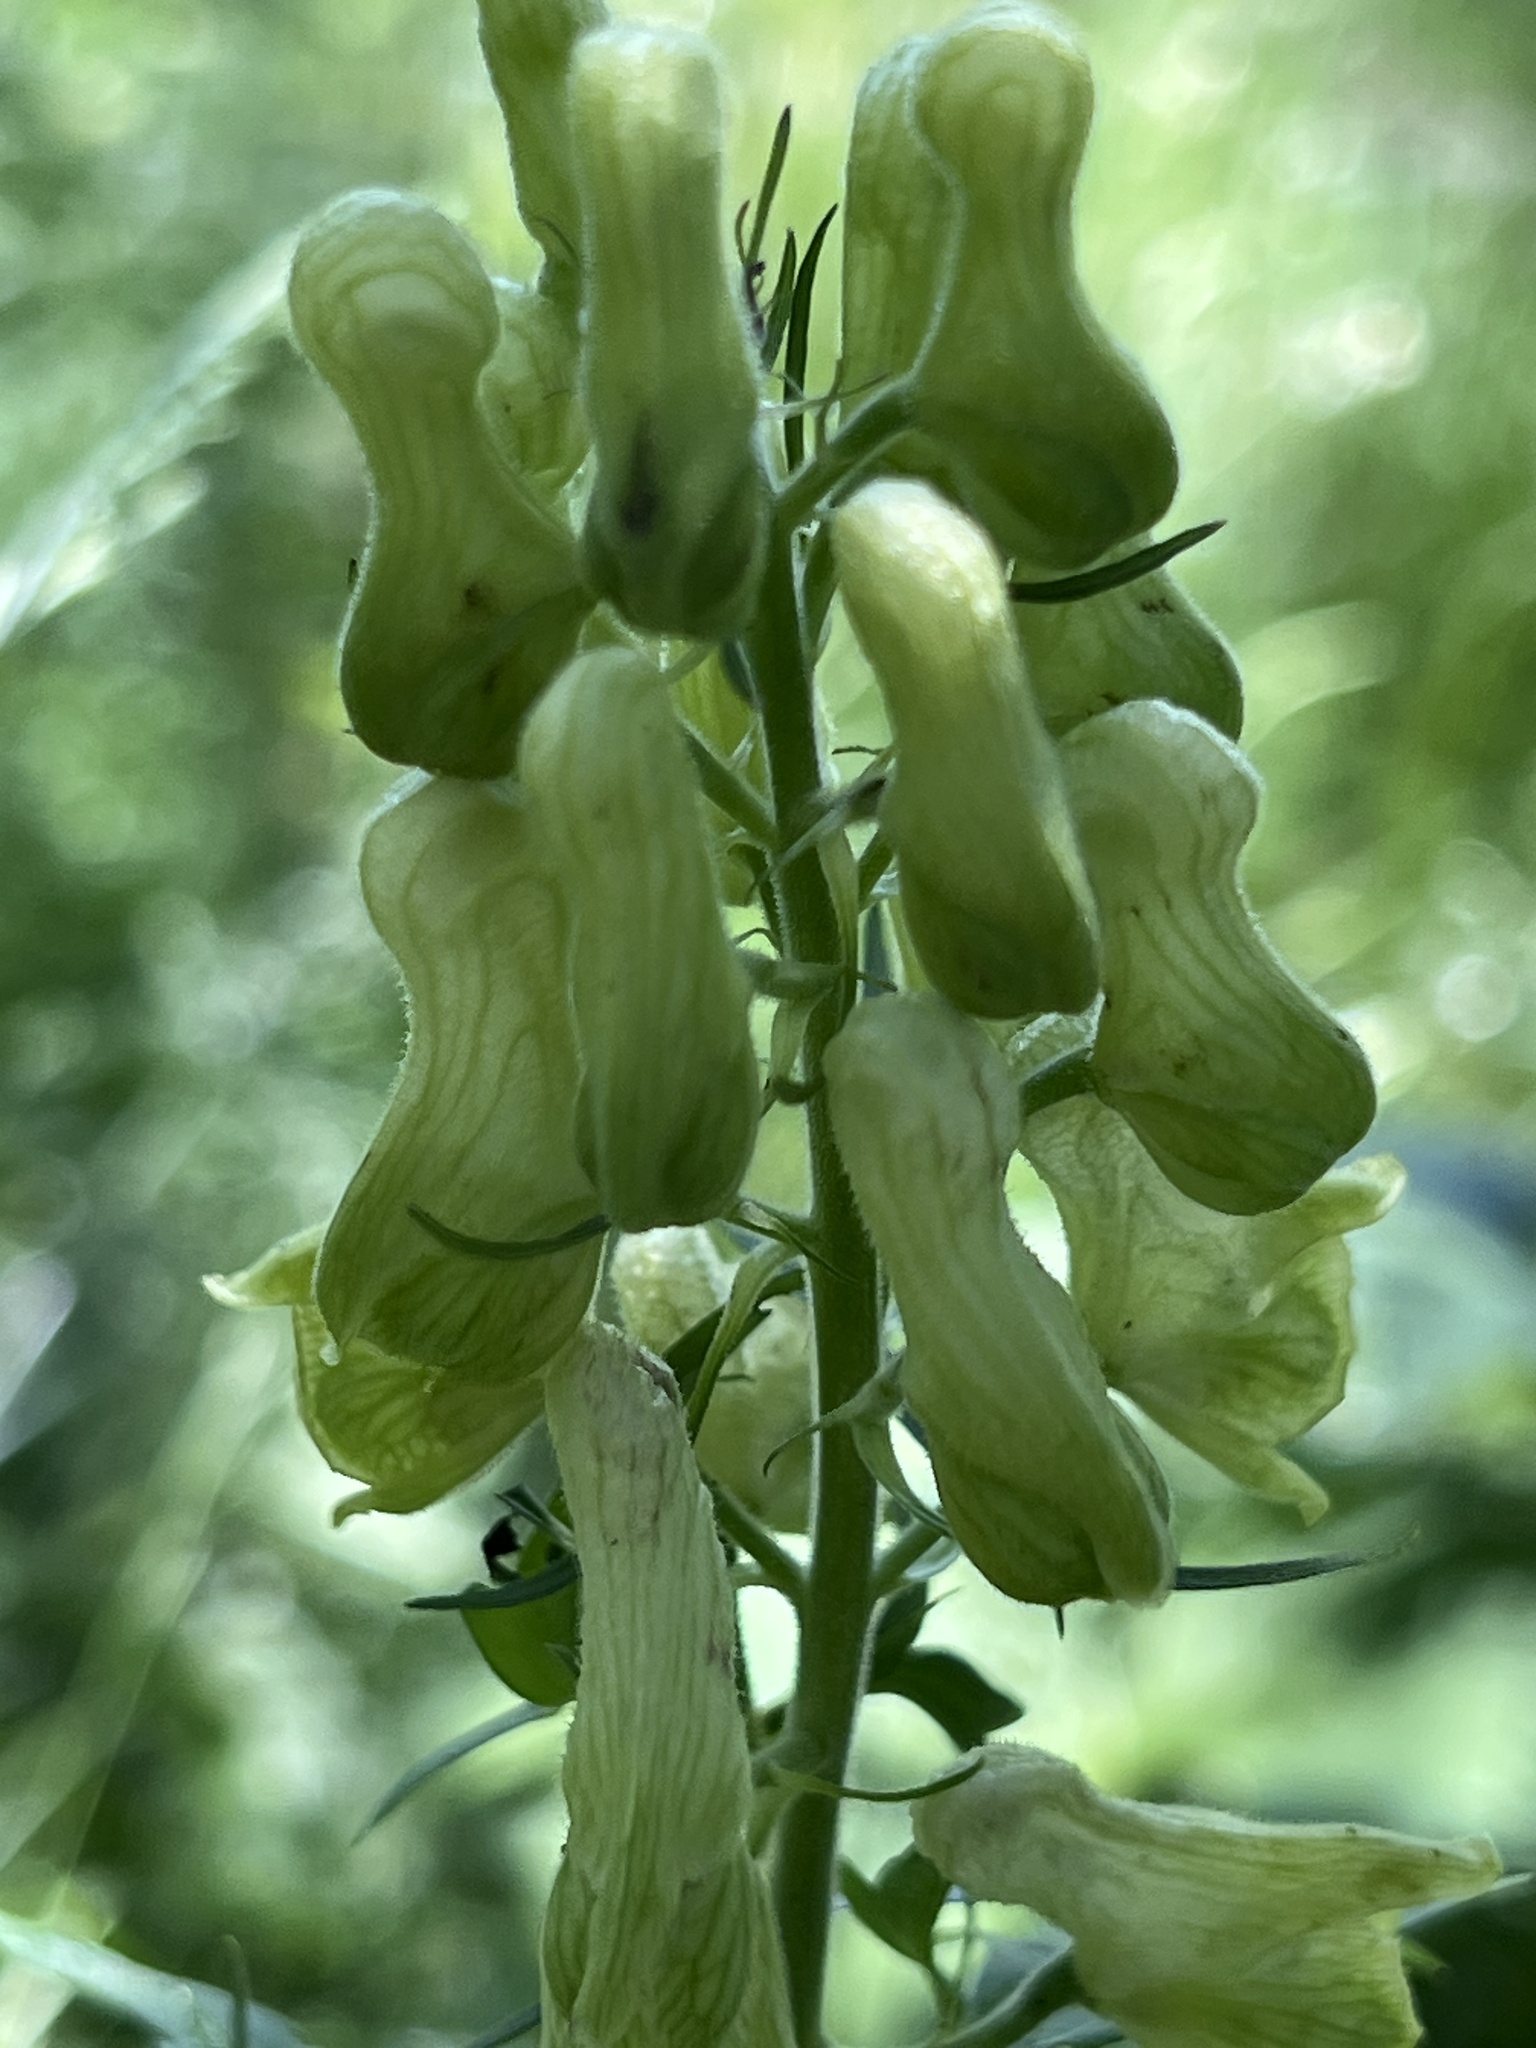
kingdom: Plantae
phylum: Tracheophyta
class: Magnoliopsida
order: Ranunculales
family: Ranunculaceae
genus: Aconitum
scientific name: Aconitum lamarckii
